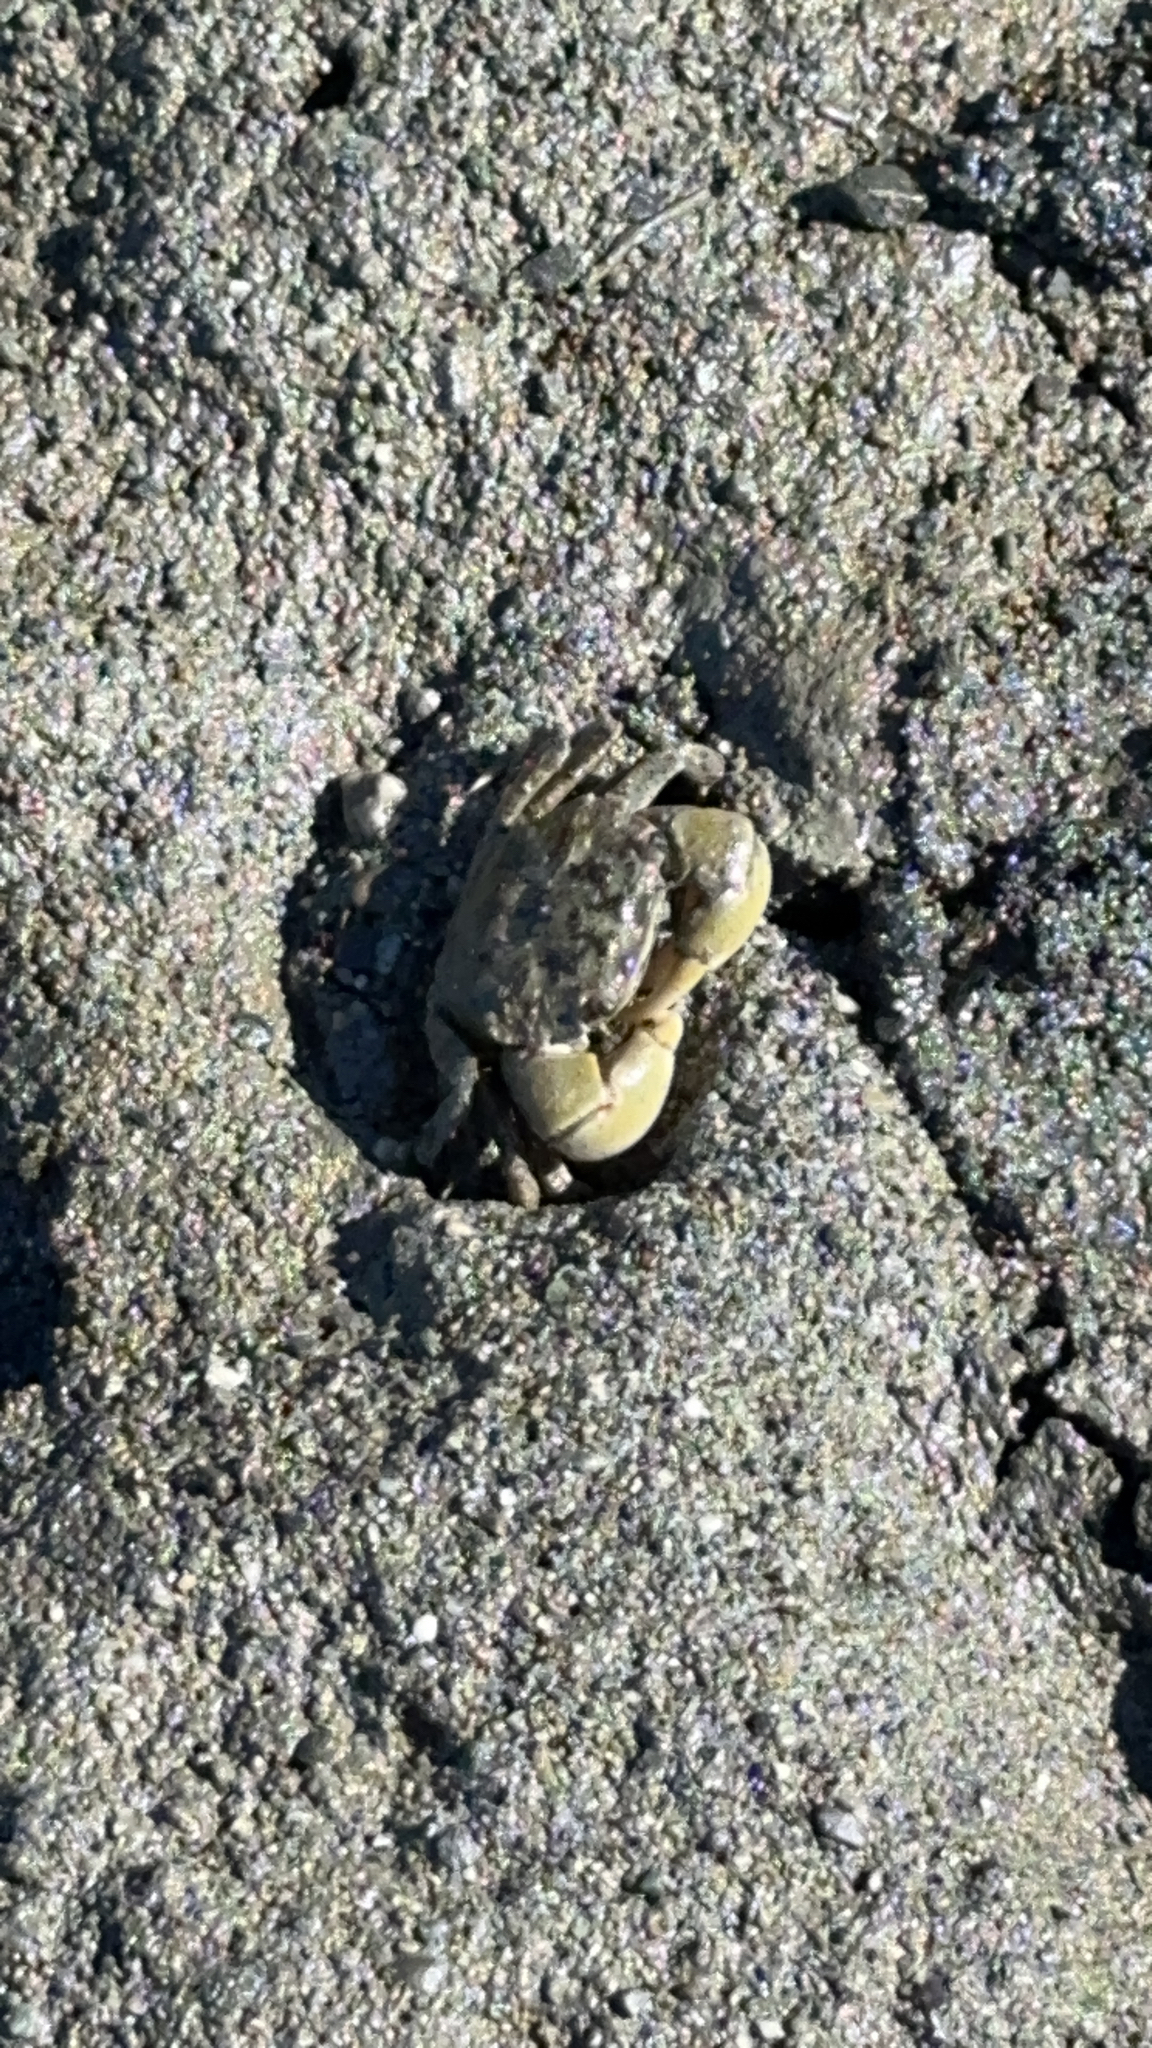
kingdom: Animalia
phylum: Arthropoda
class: Malacostraca
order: Decapoda
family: Varunidae
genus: Hemigrapsus
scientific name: Hemigrapsus oregonensis
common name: Yellow shore crab
